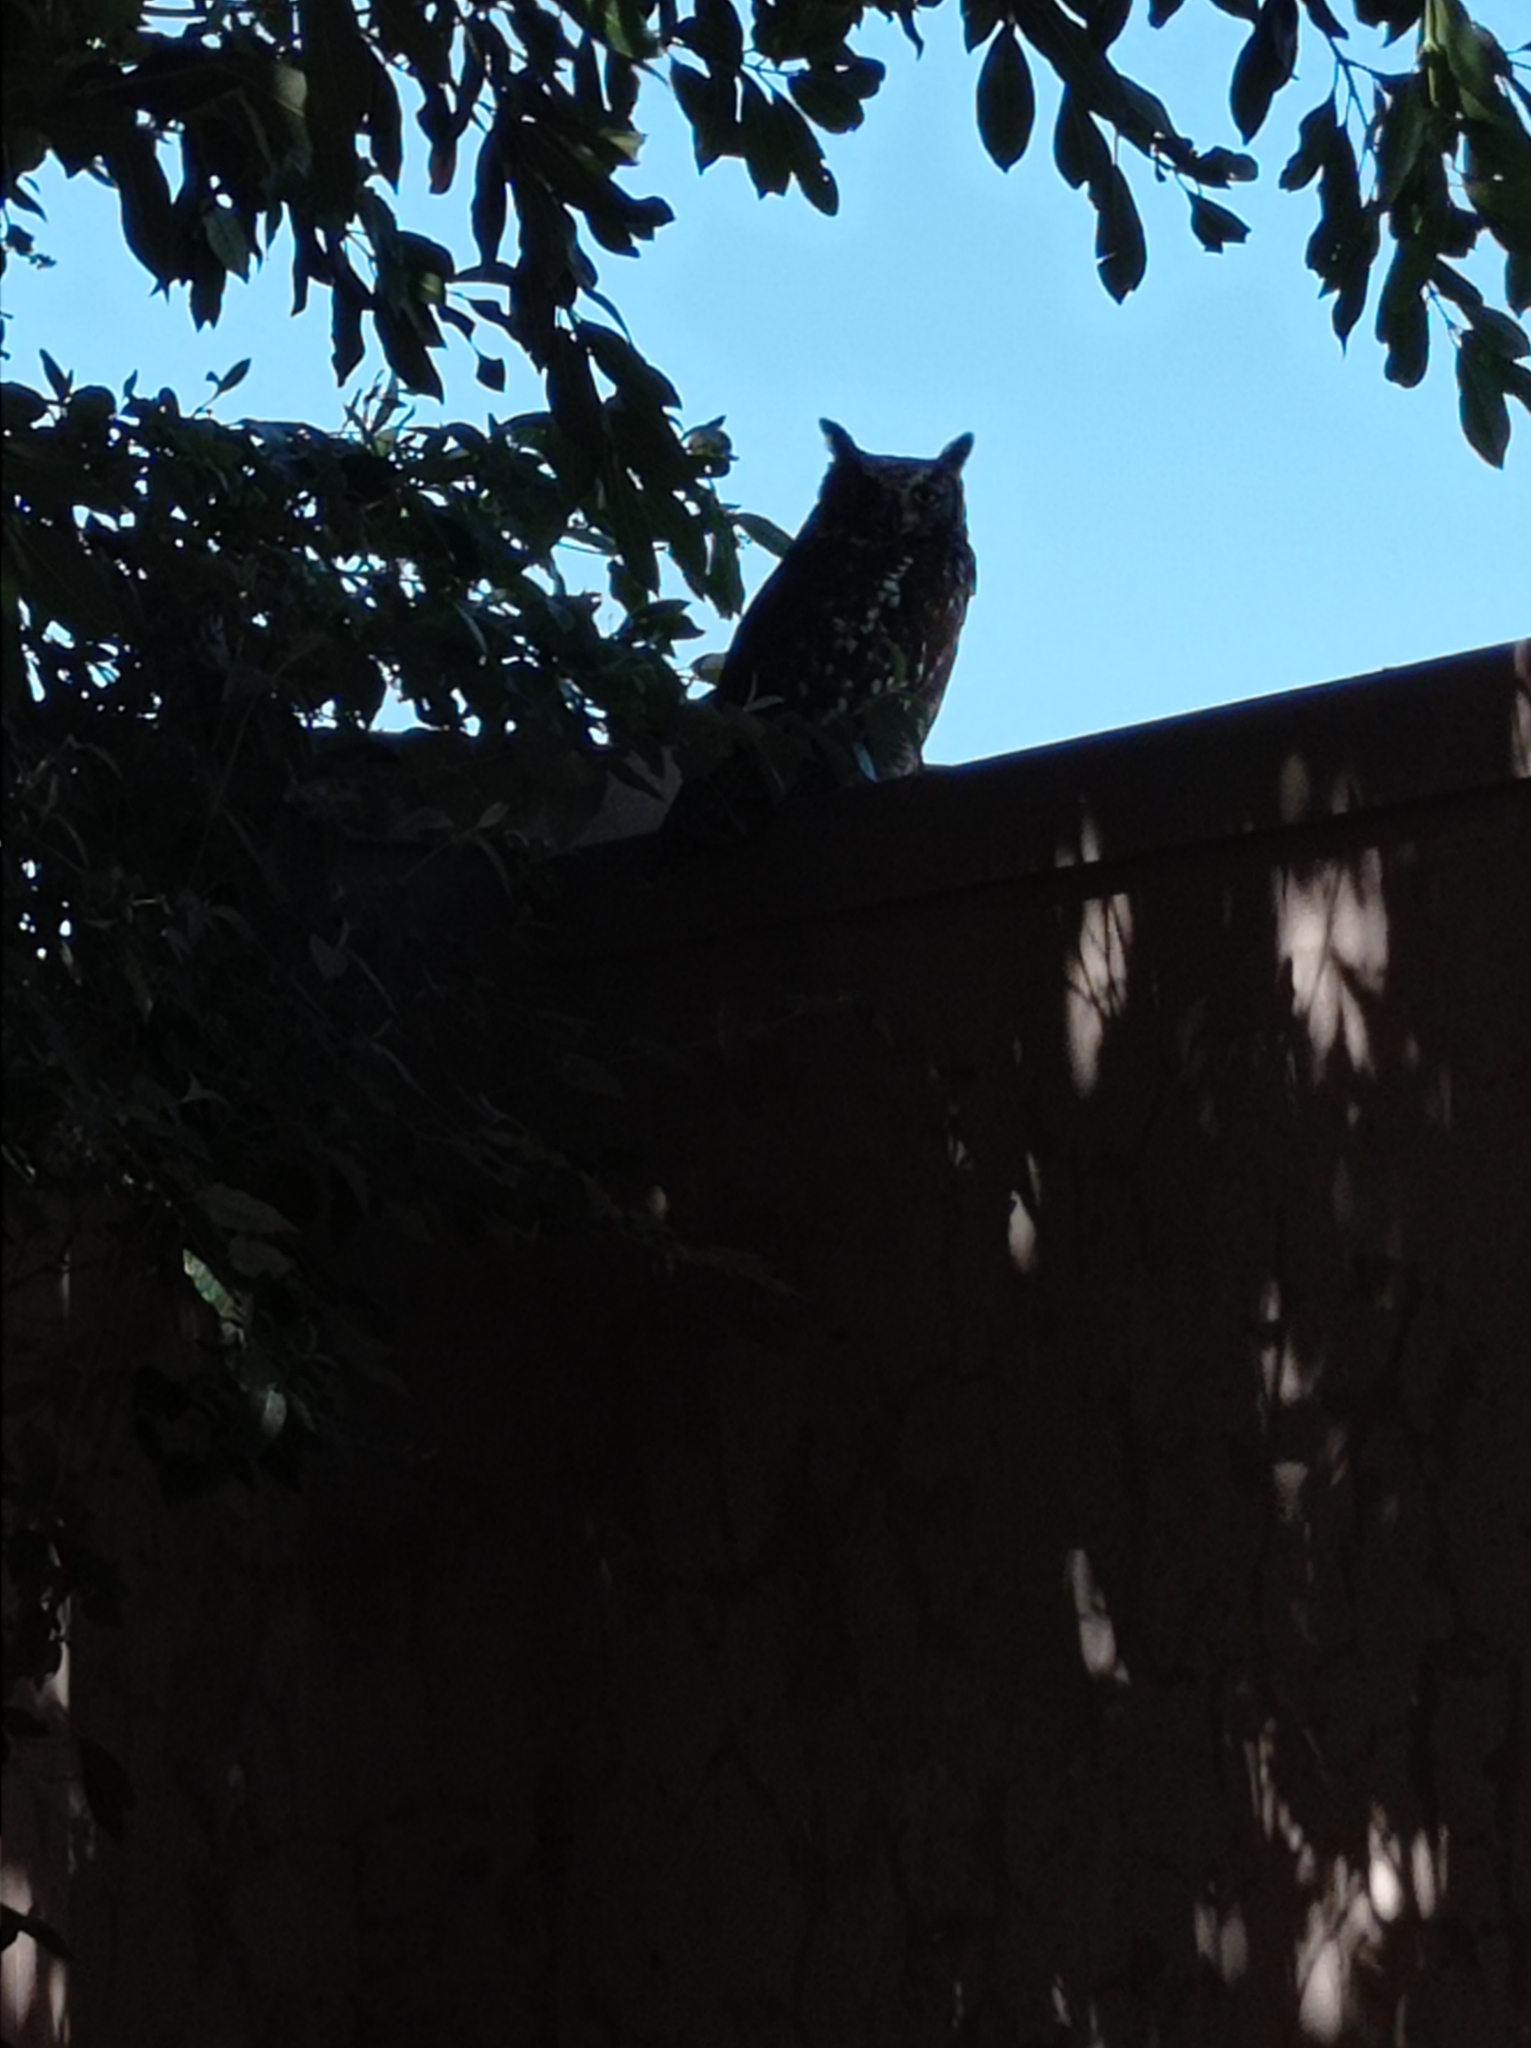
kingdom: Animalia
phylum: Chordata
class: Aves
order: Strigiformes
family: Strigidae
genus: Bubo
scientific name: Bubo africanus
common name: Spotted eagle-owl
